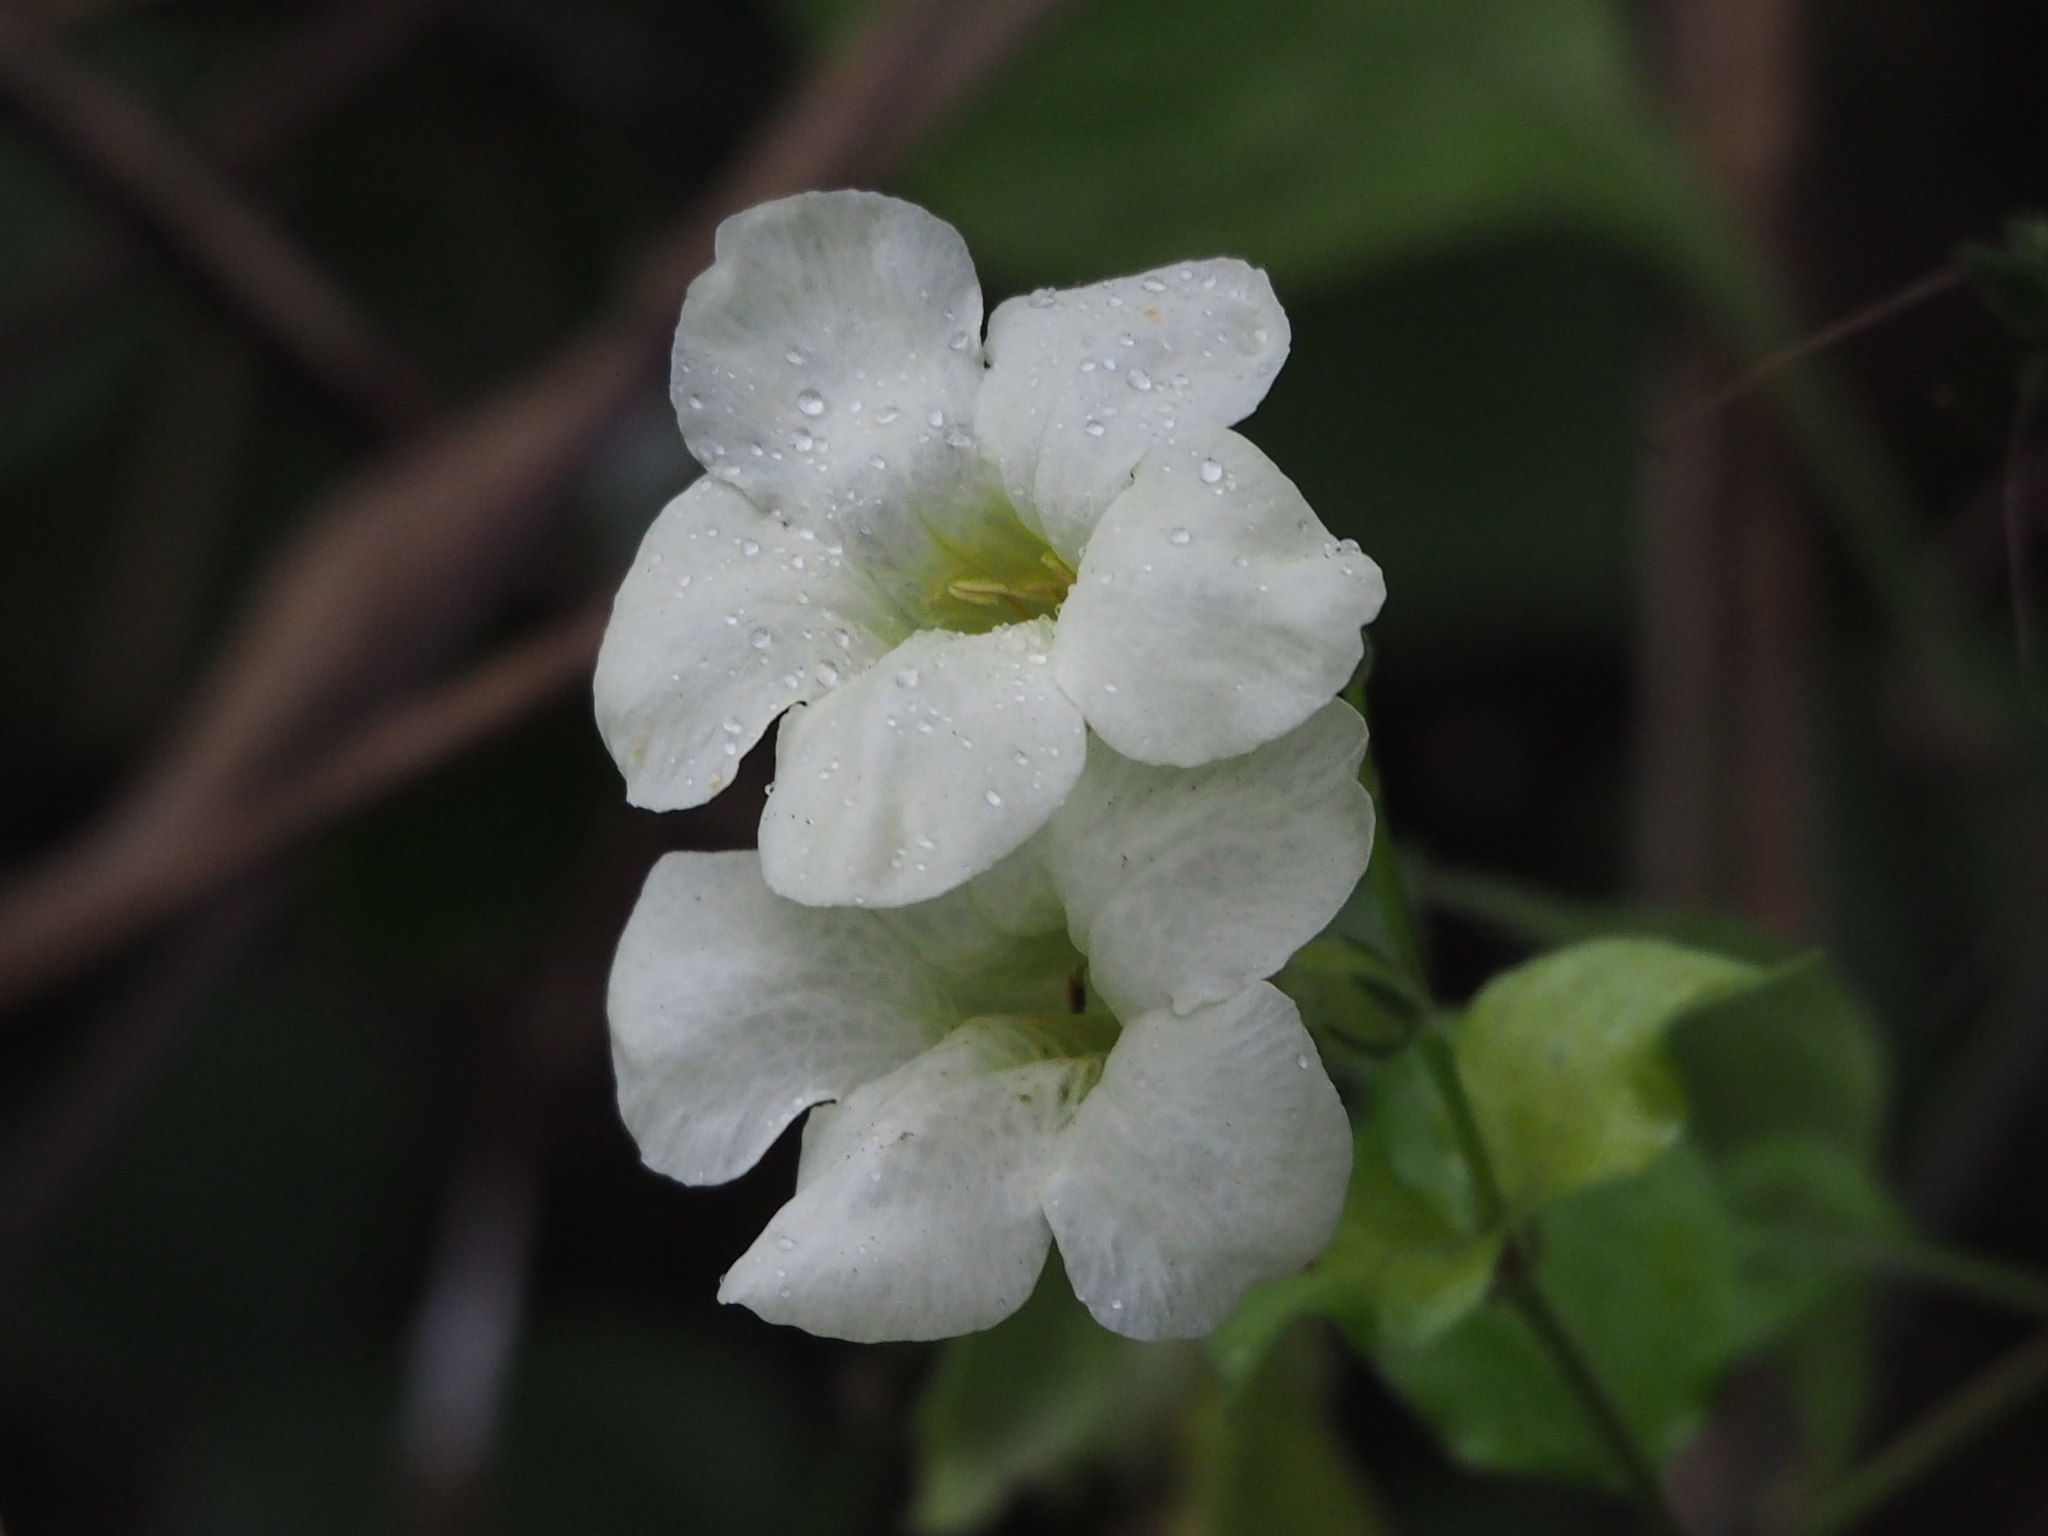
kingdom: Plantae
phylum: Tracheophyta
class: Magnoliopsida
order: Lamiales
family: Acanthaceae
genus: Asystasia
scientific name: Asystasia gangetica
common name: Chinese violet
